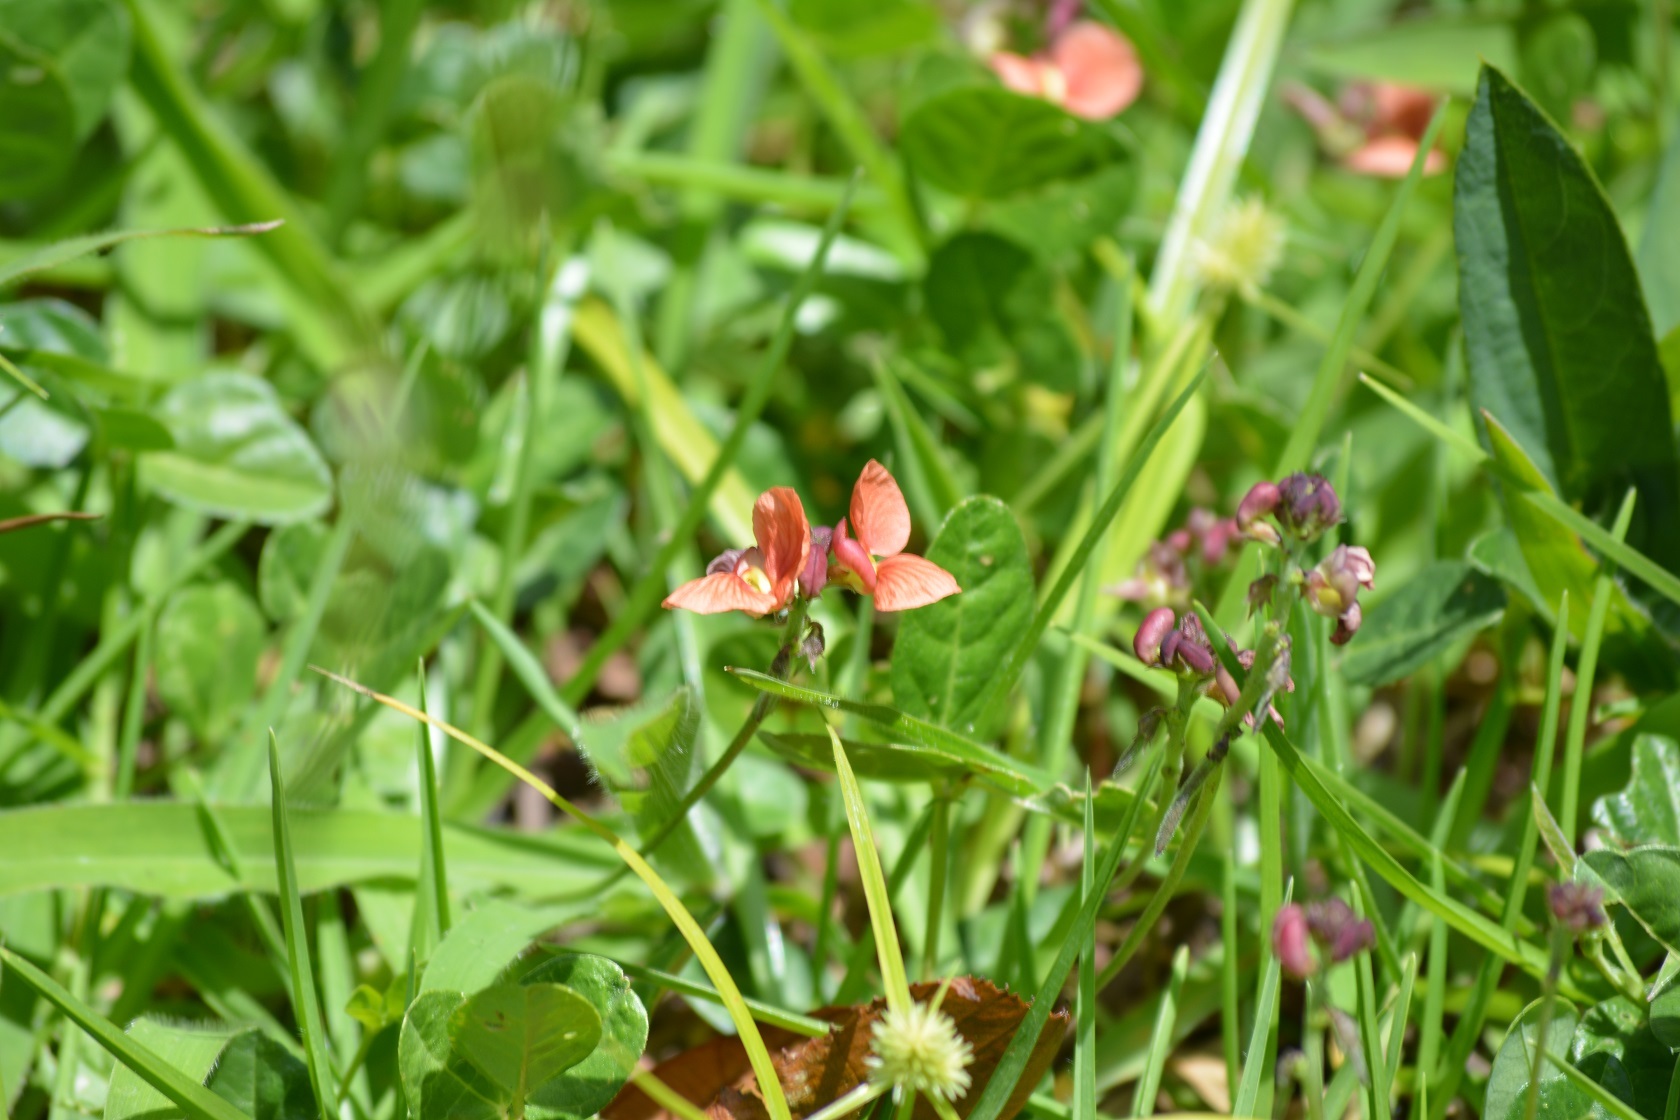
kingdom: Plantae
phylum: Tracheophyta
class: Magnoliopsida
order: Fabales
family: Fabaceae
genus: Macroptilium
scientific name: Macroptilium gibbosifolium
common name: Variableleaf bushbean
